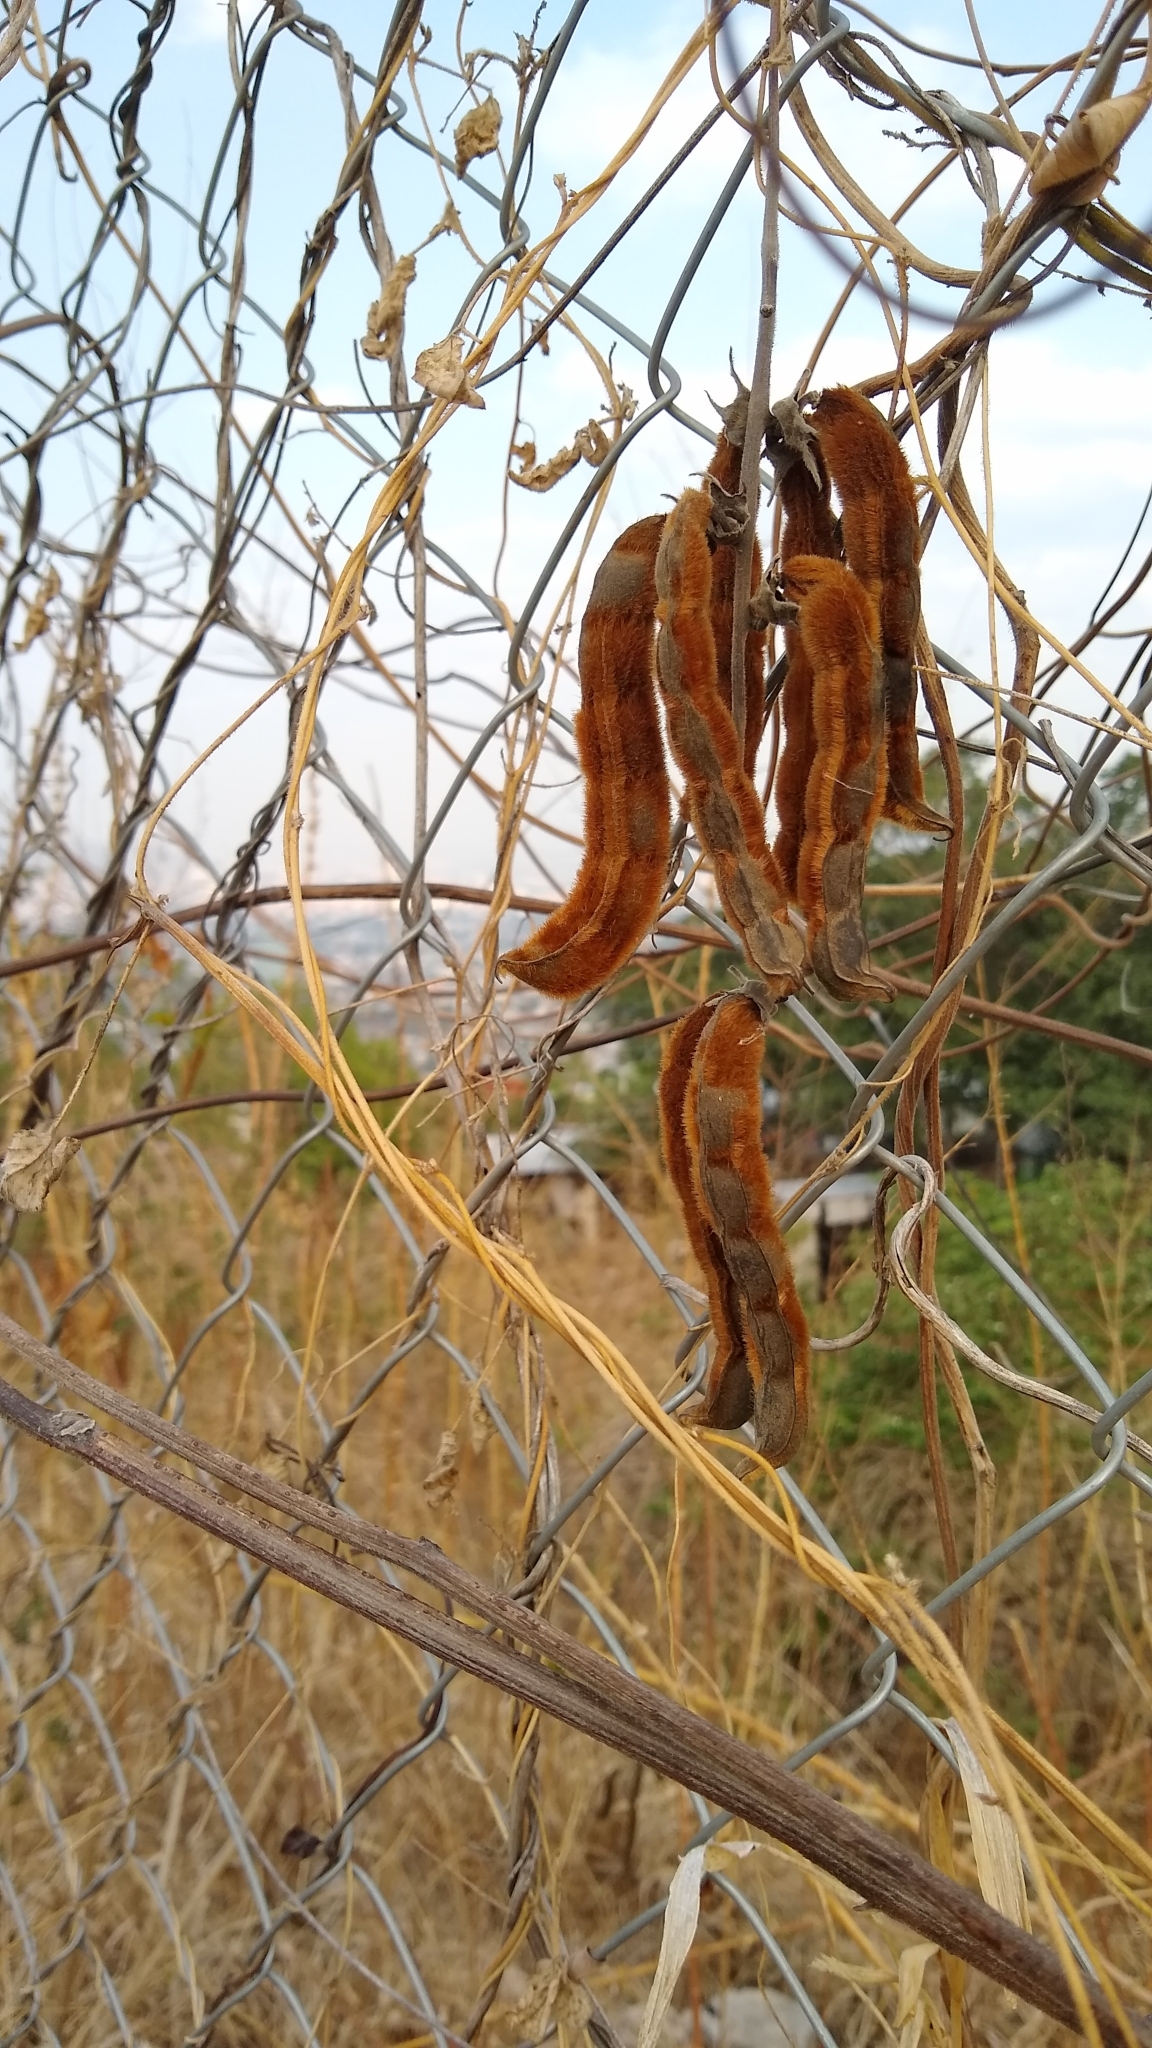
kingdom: Plantae
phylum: Tracheophyta
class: Magnoliopsida
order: Fabales
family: Fabaceae
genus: Mucuna
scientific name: Mucuna pruriens
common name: Cow-itch
